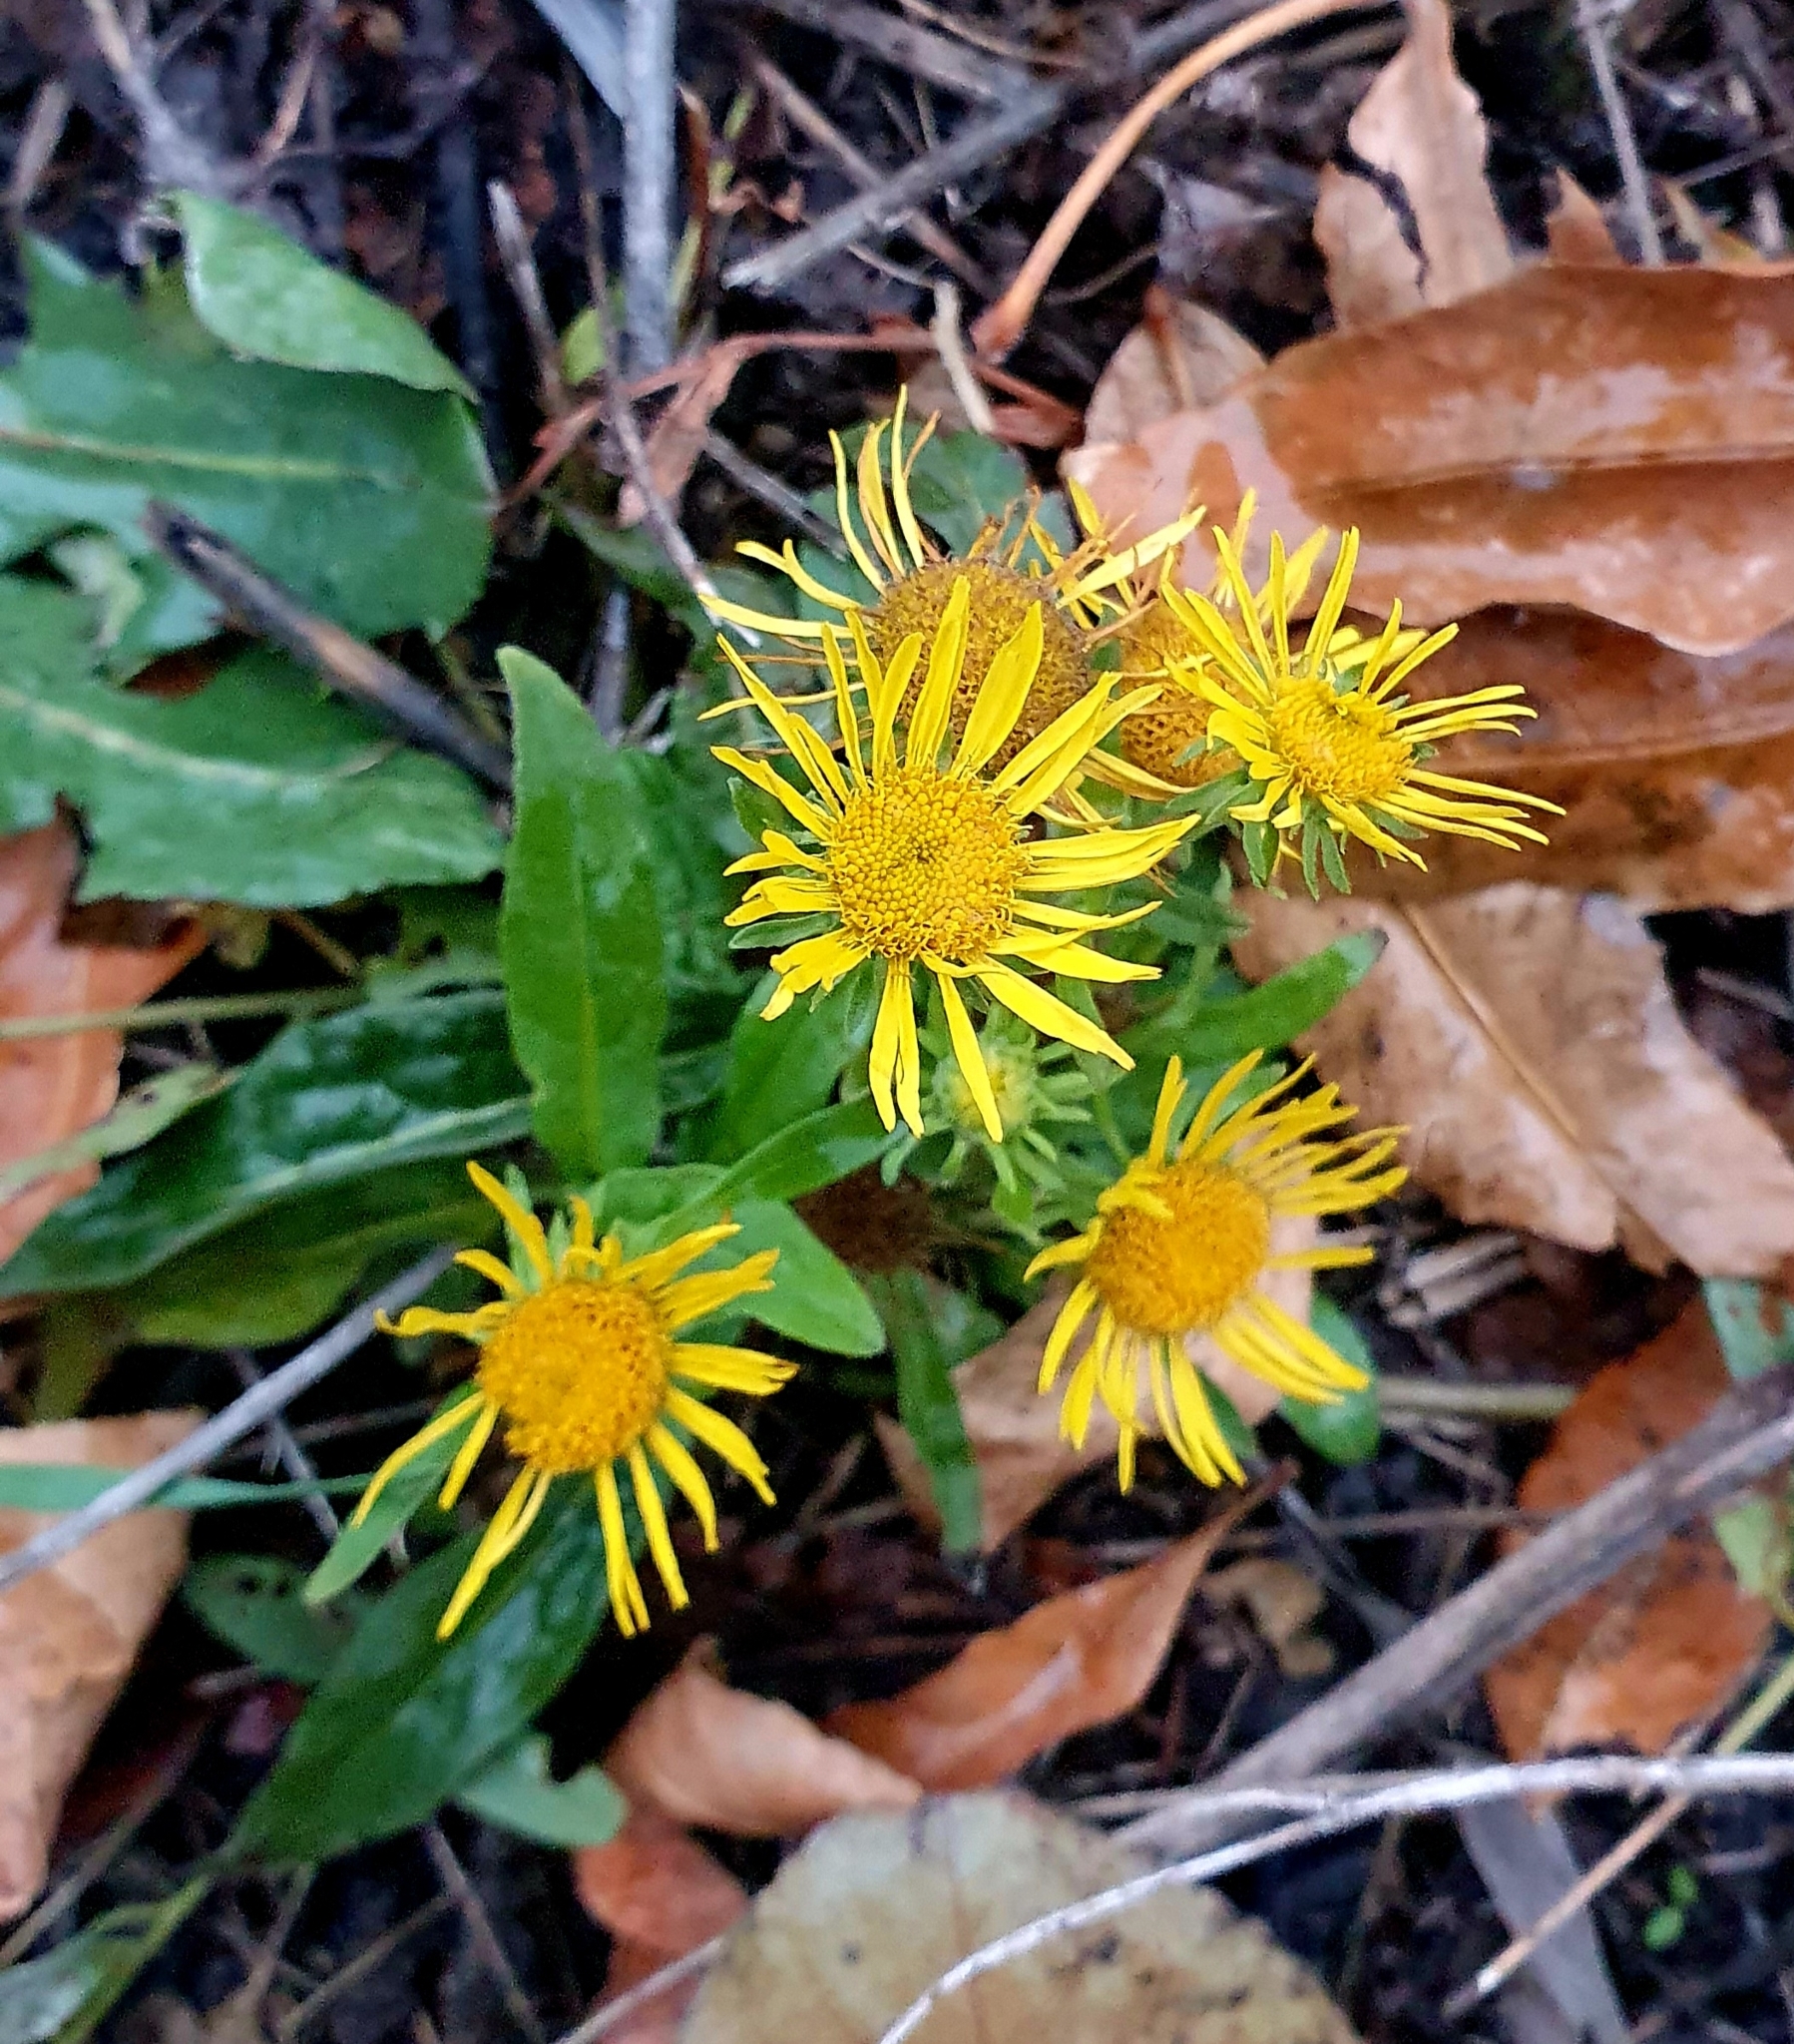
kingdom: Plantae
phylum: Tracheophyta
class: Magnoliopsida
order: Asterales
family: Asteraceae
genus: Pentanema
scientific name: Pentanema britannicum
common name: British elecampane
